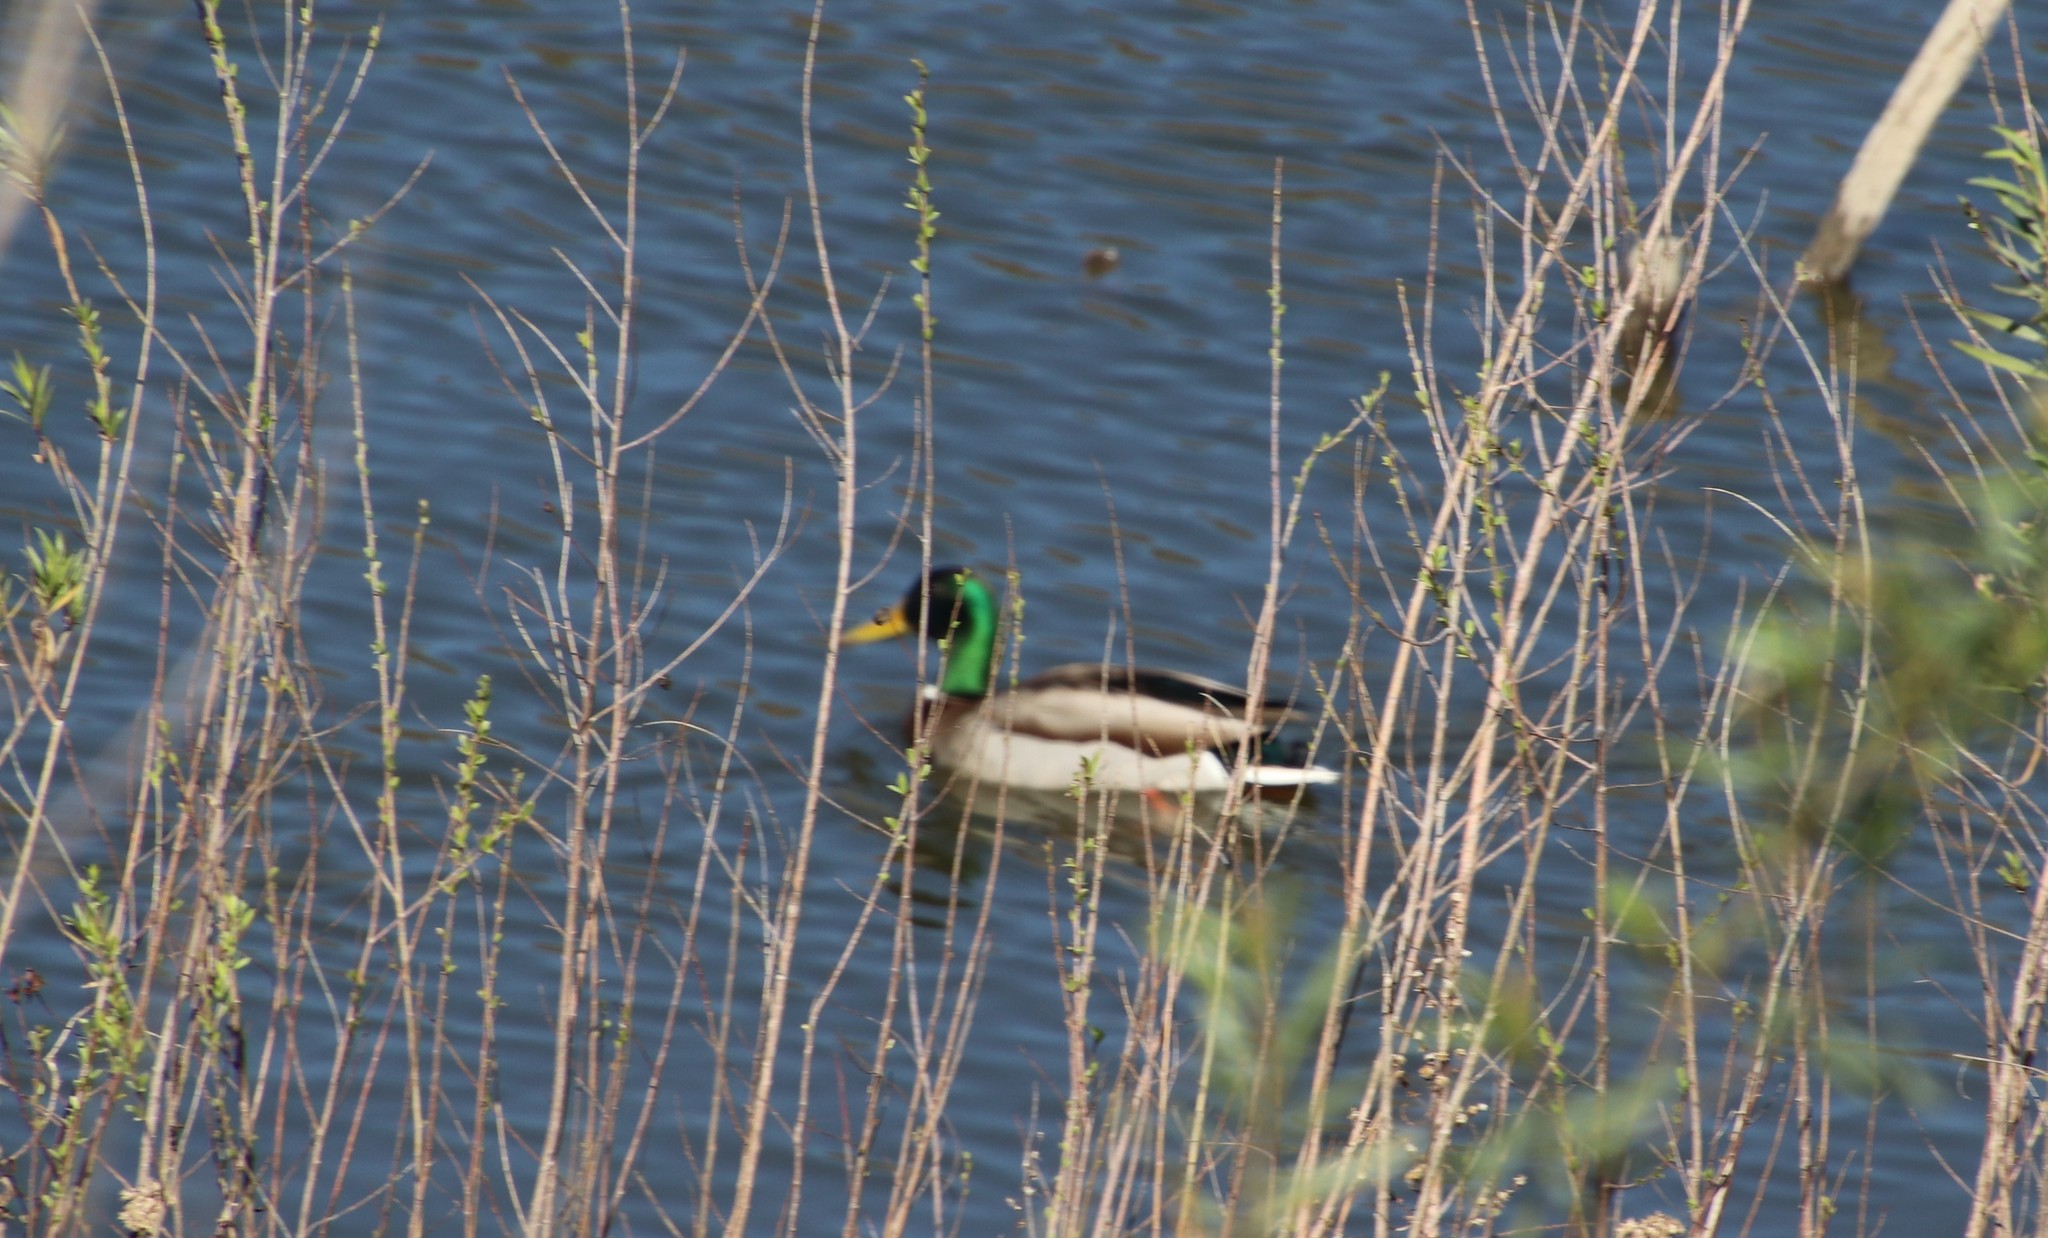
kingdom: Animalia
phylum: Chordata
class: Aves
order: Anseriformes
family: Anatidae
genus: Anas
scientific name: Anas platyrhynchos
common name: Mallard
